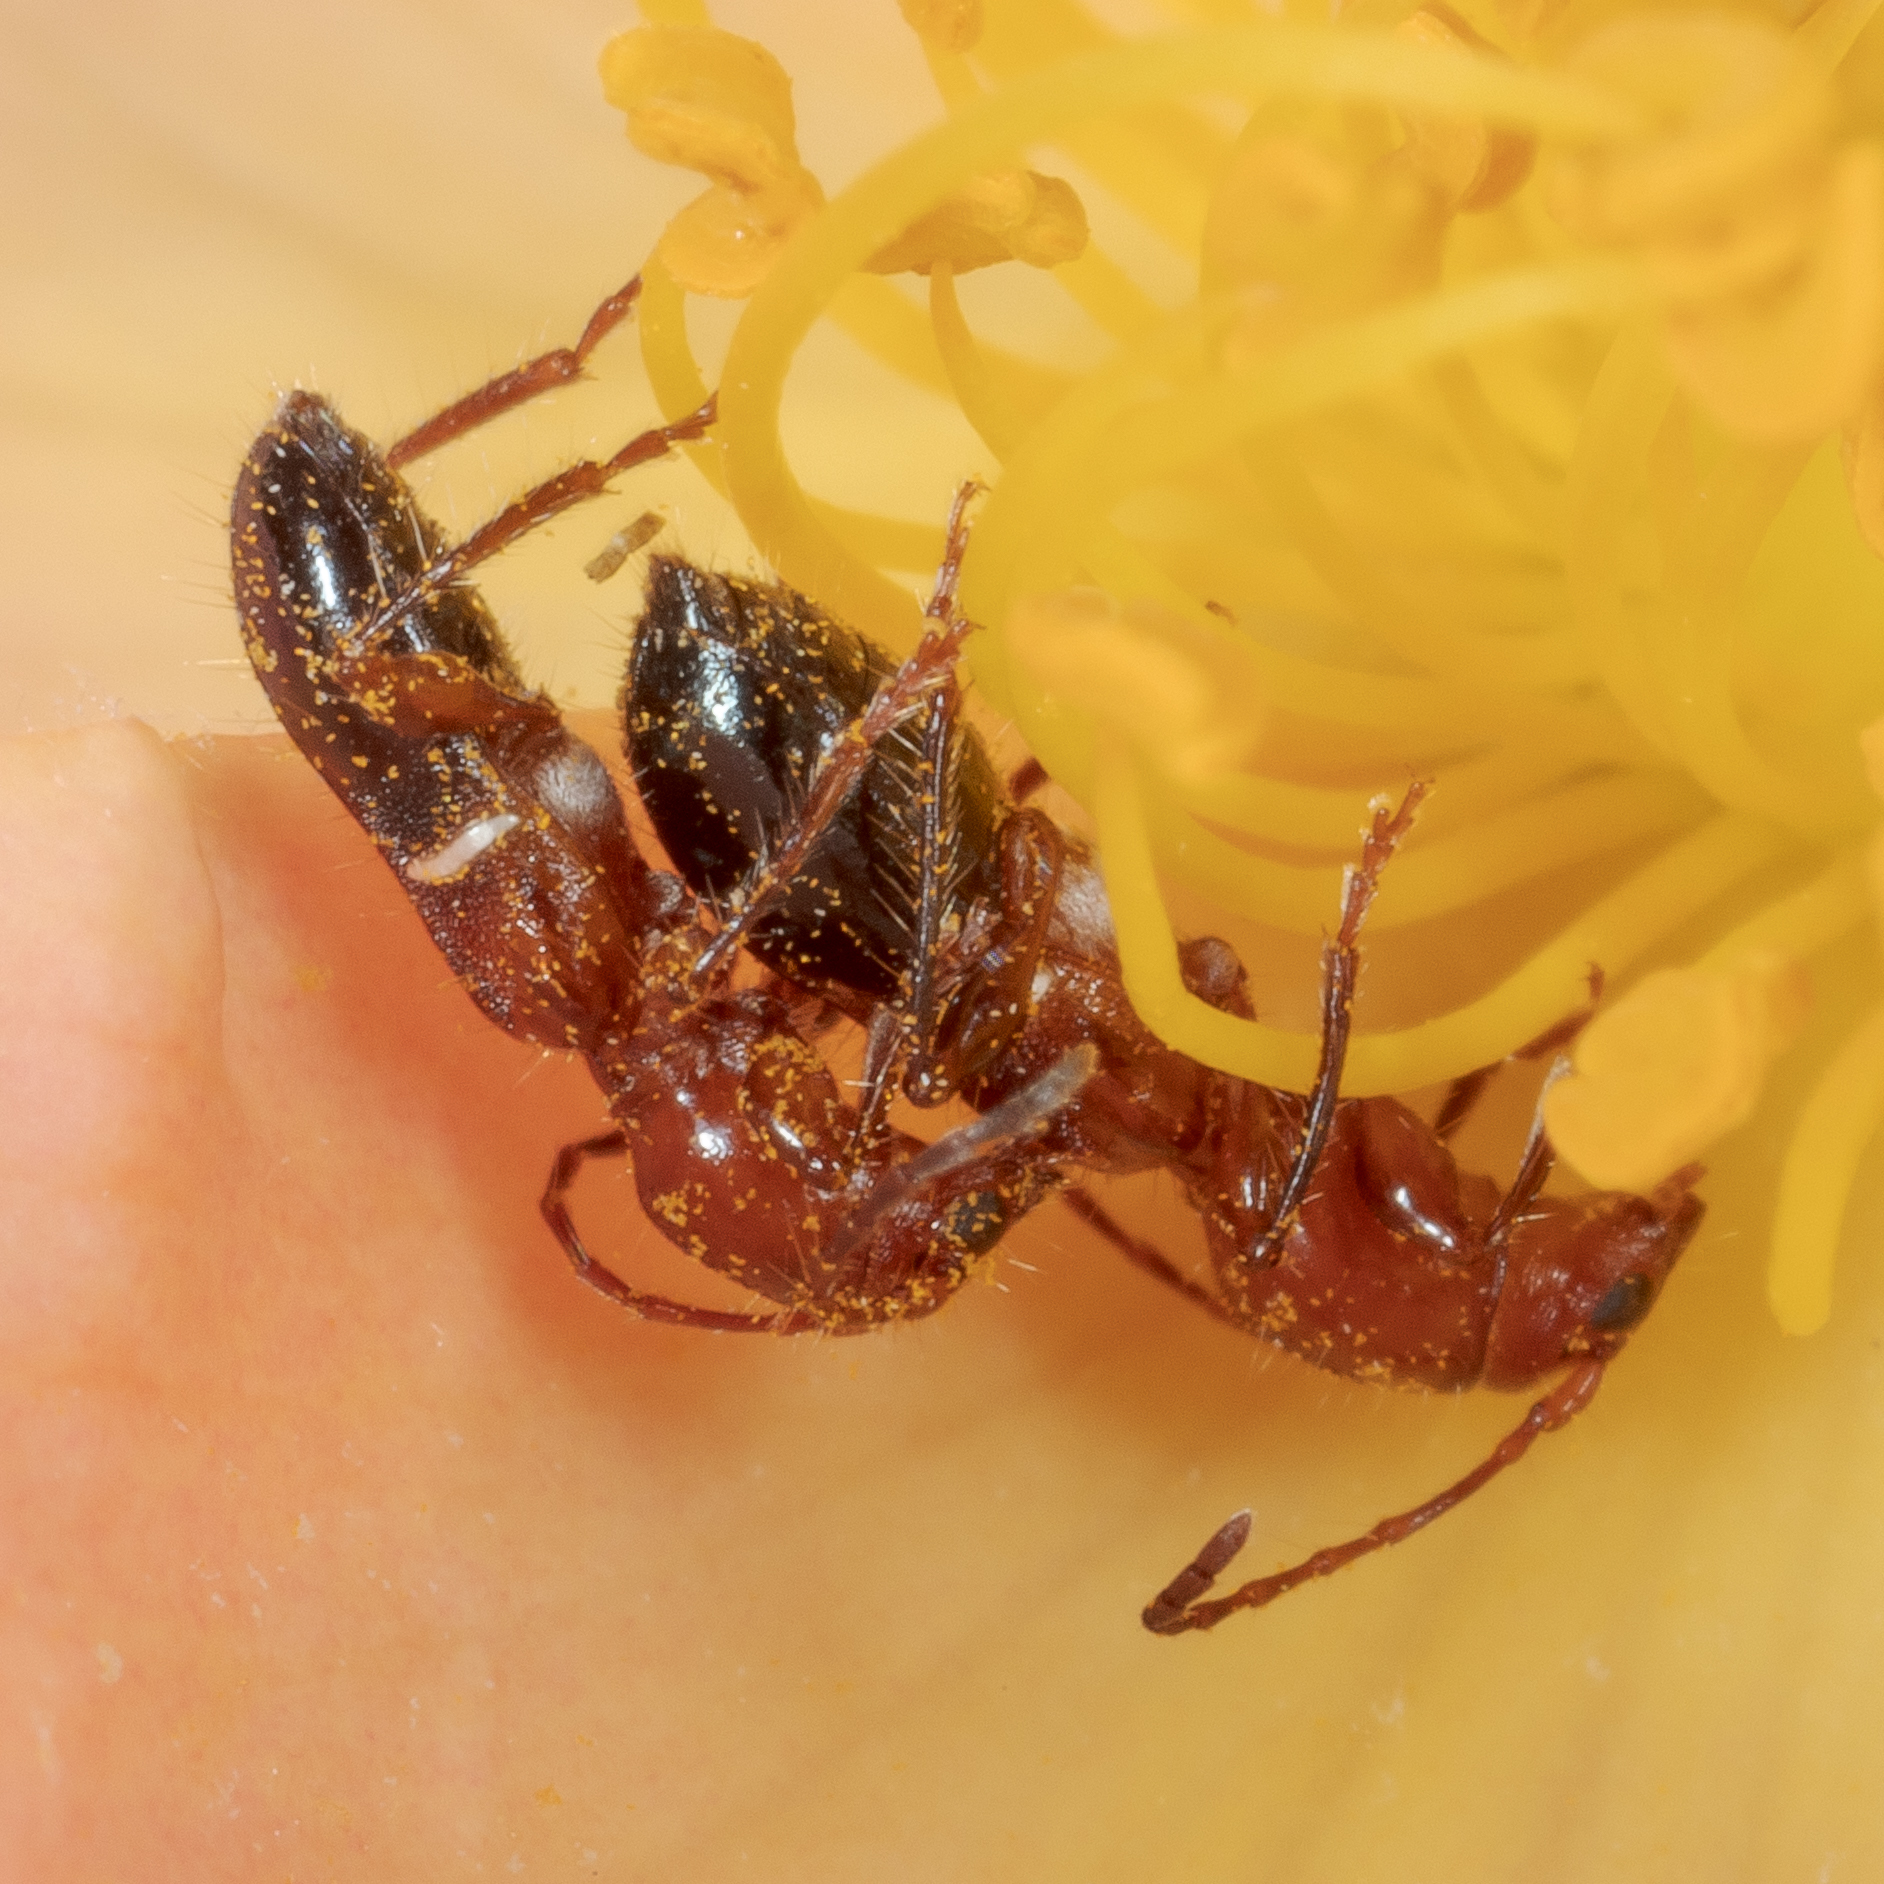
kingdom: Animalia
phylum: Arthropoda
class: Insecta
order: Coleoptera
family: Cerambycidae
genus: Euderces
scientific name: Euderces reichei
